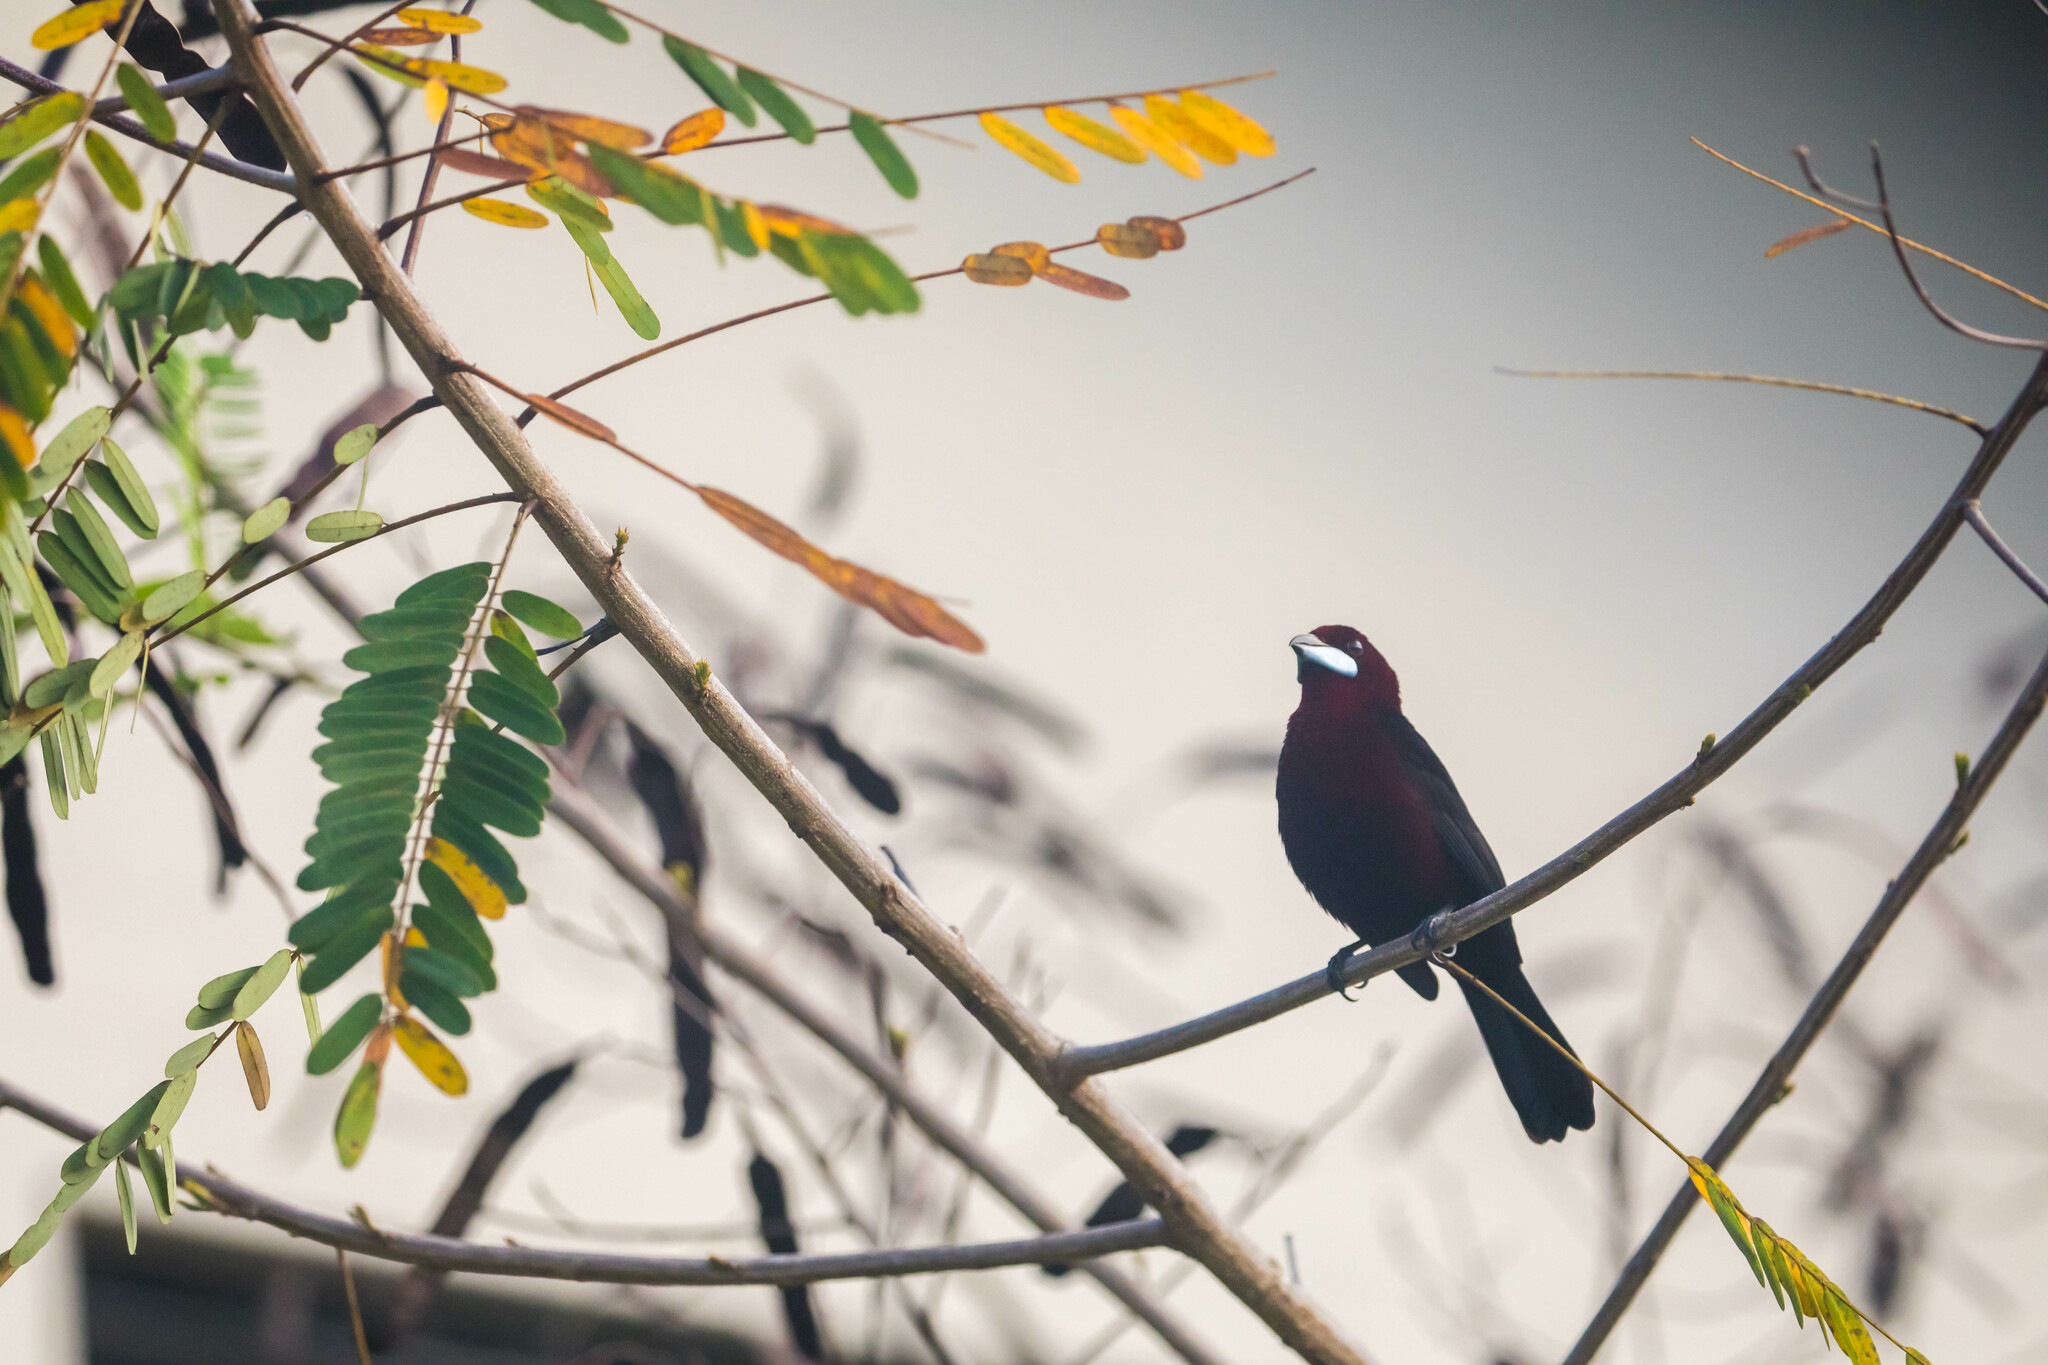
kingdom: Animalia
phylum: Chordata
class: Aves
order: Passeriformes
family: Thraupidae
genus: Ramphocelus
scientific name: Ramphocelus carbo
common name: Silver-beaked tanager
